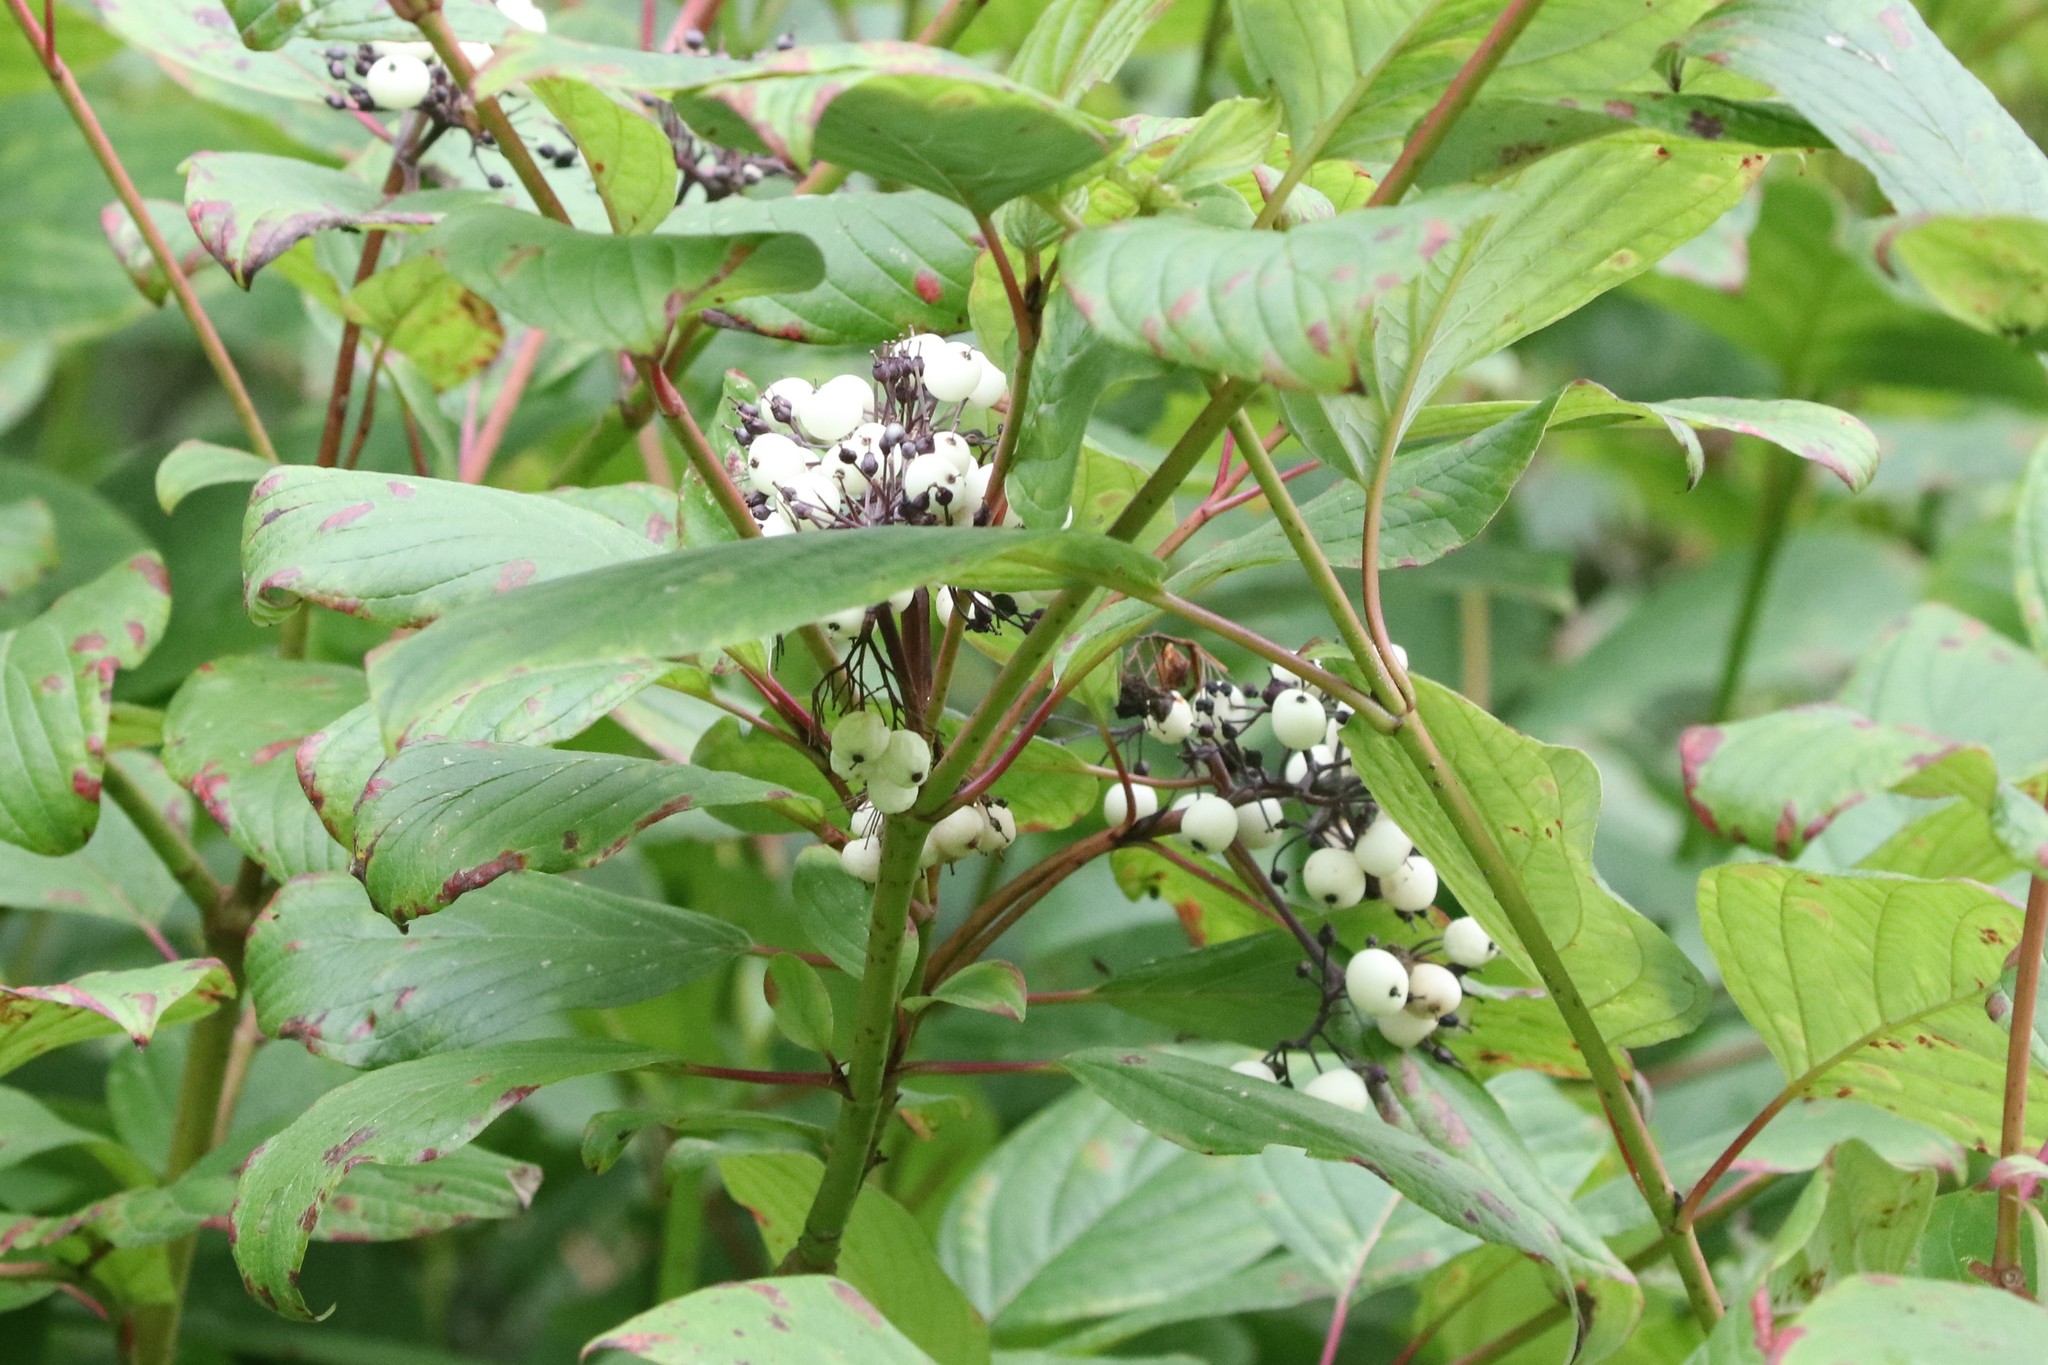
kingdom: Plantae
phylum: Tracheophyta
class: Magnoliopsida
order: Cornales
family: Cornaceae
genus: Cornus
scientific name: Cornus sericea
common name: Red-osier dogwood
